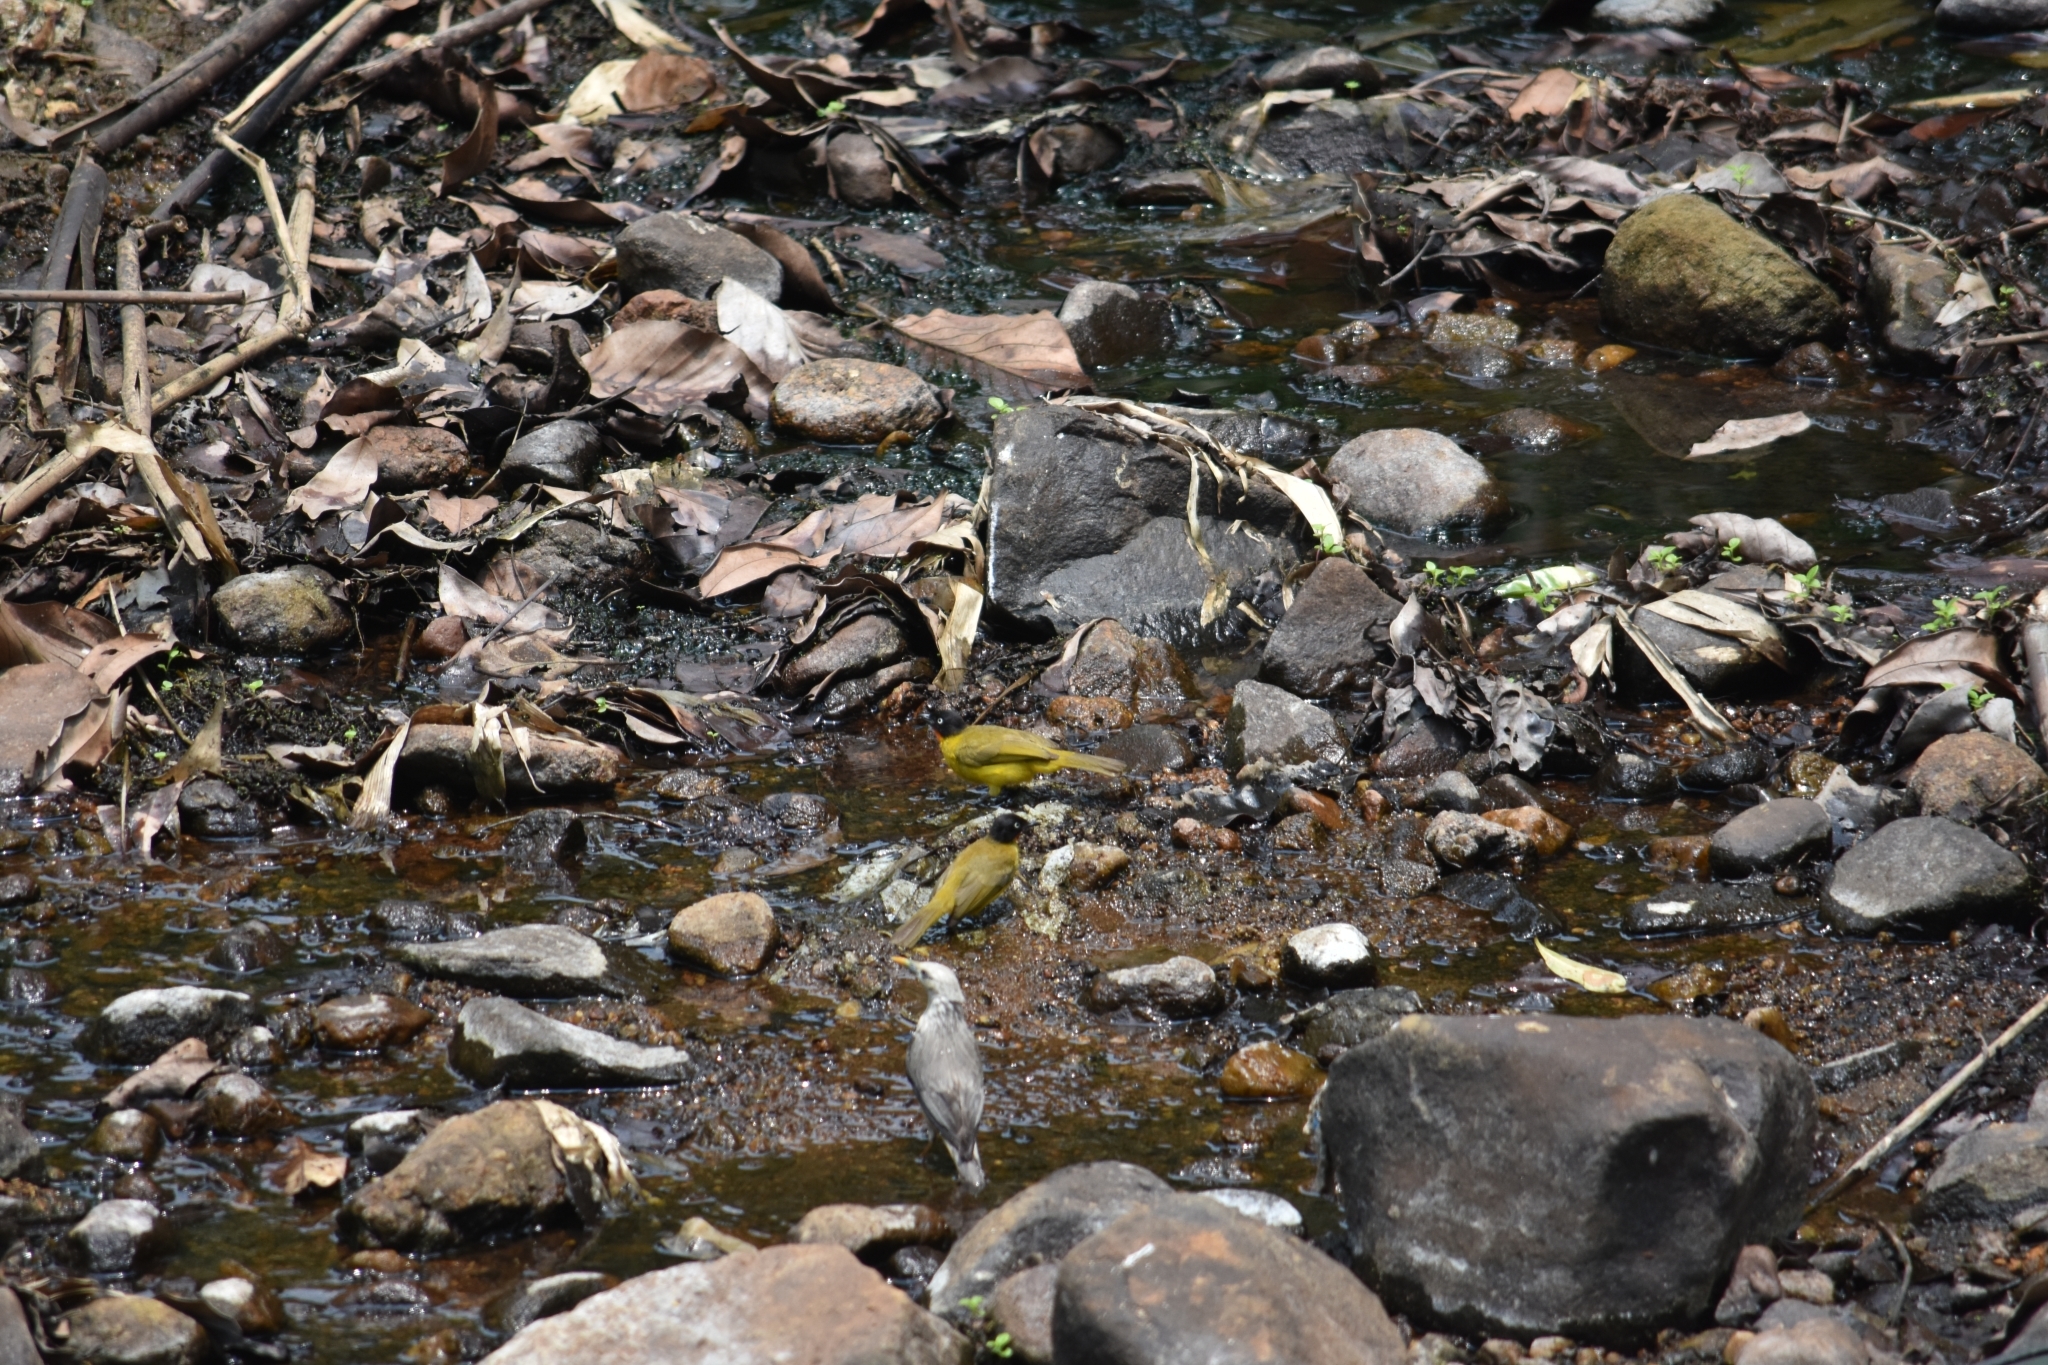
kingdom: Animalia
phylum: Chordata
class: Aves
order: Passeriformes
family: Pycnonotidae
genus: Pycnonotus
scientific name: Pycnonotus gularis
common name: Flame-throated bulbul
